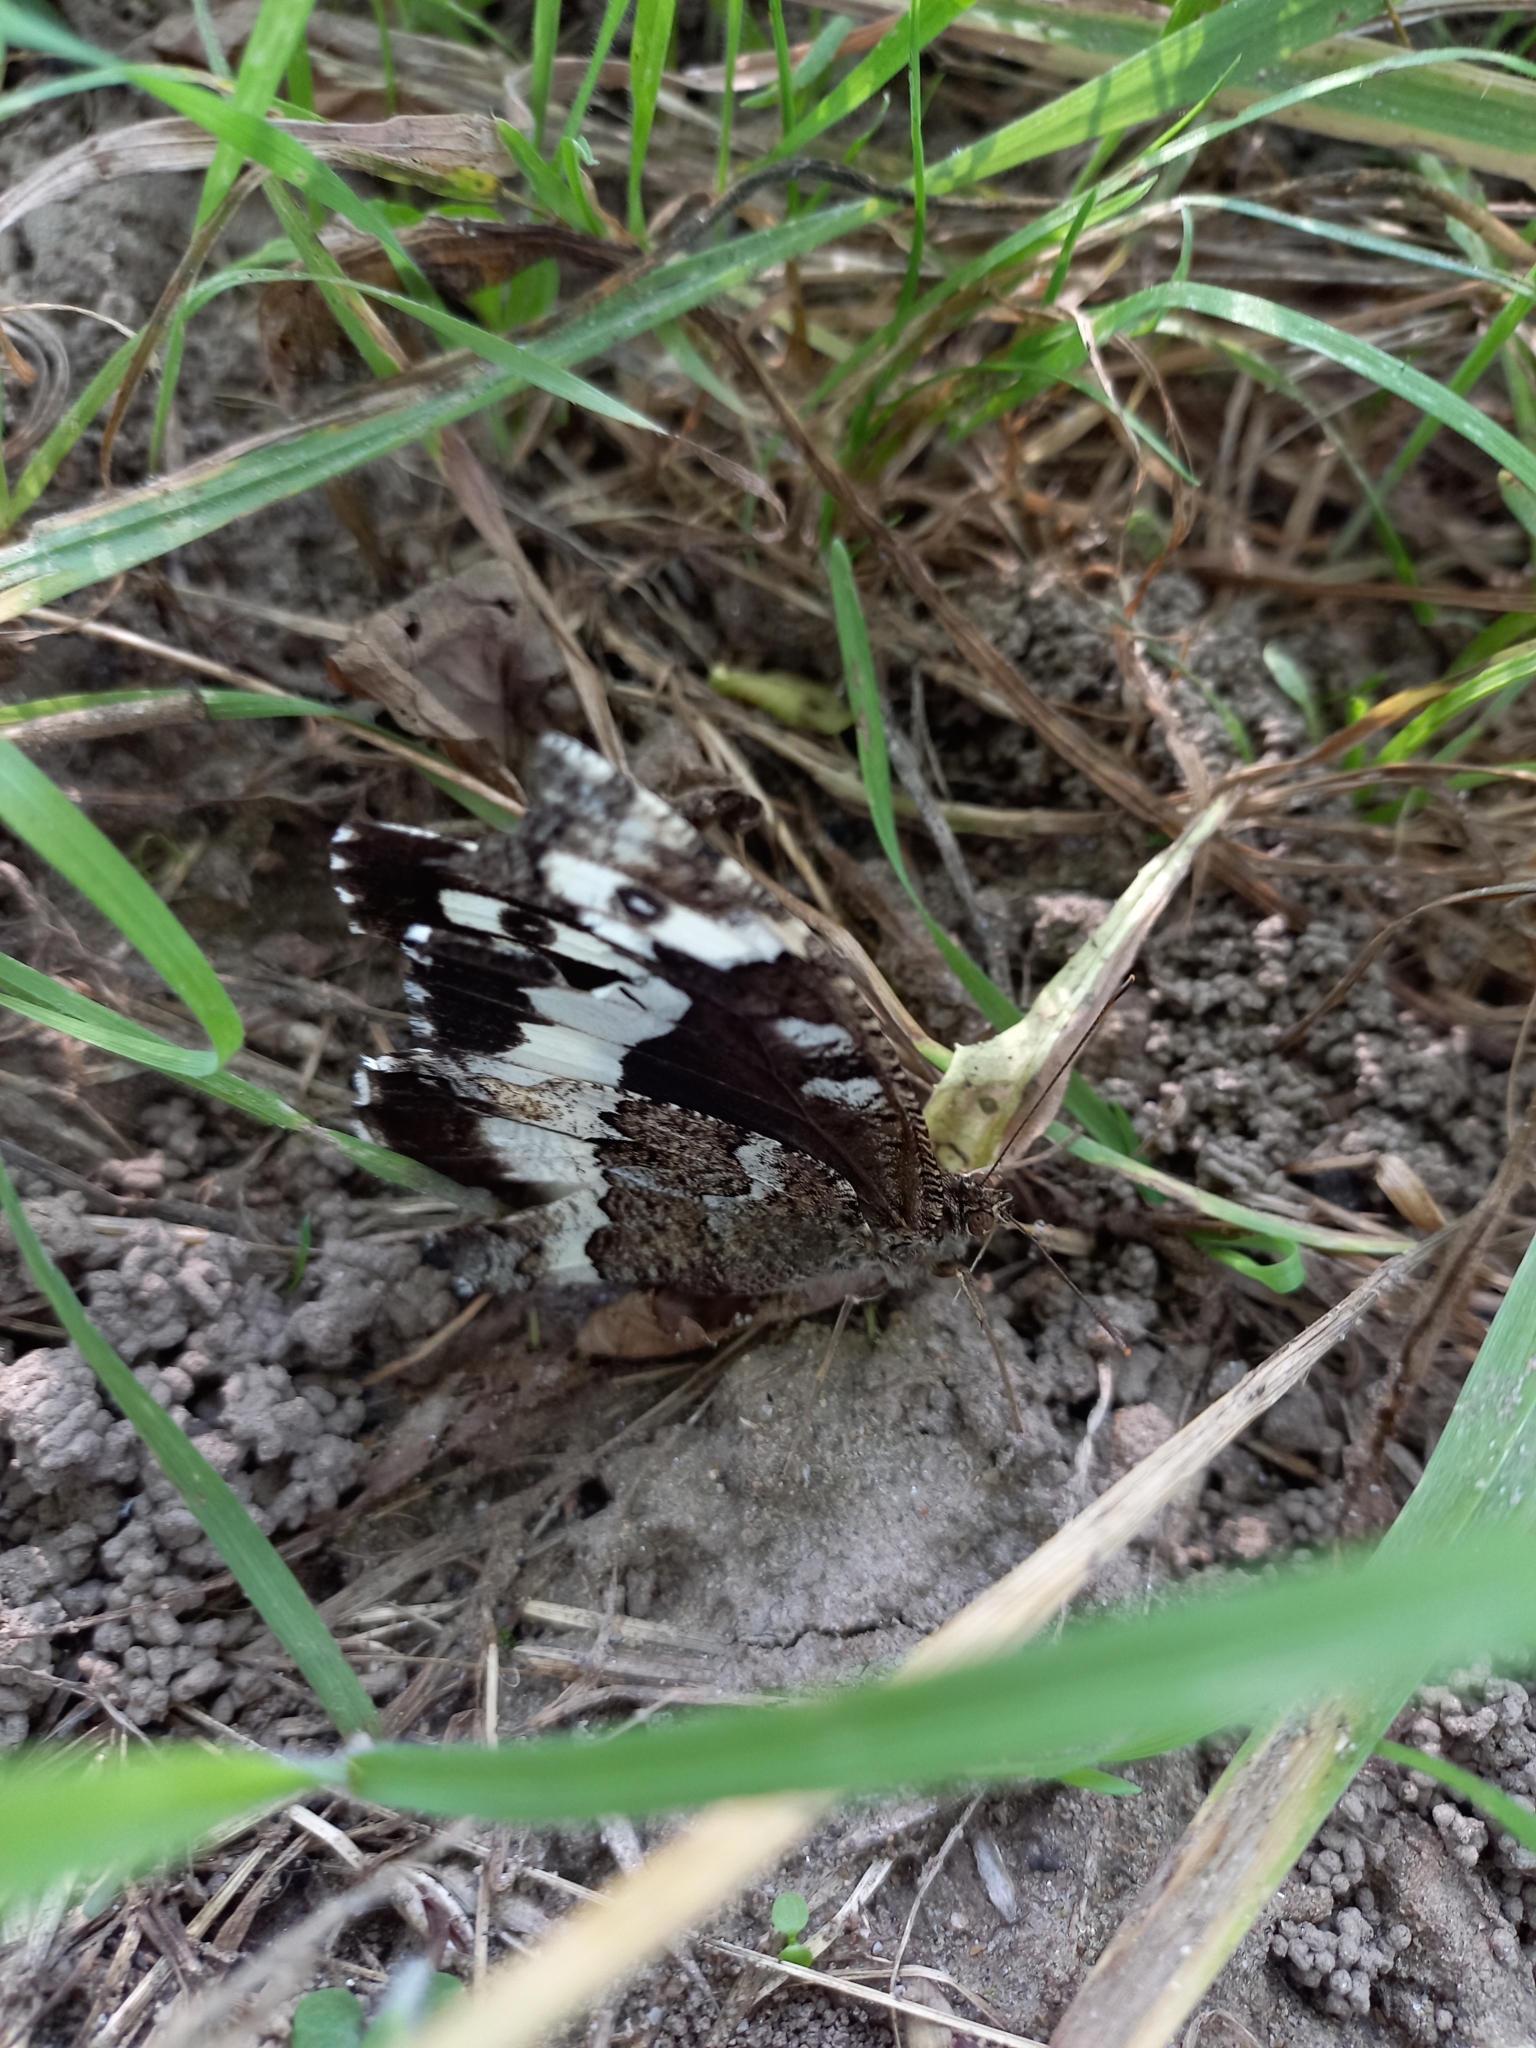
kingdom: Animalia
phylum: Arthropoda
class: Insecta
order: Lepidoptera
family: Lycaenidae
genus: Loweia
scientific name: Loweia tityrus
